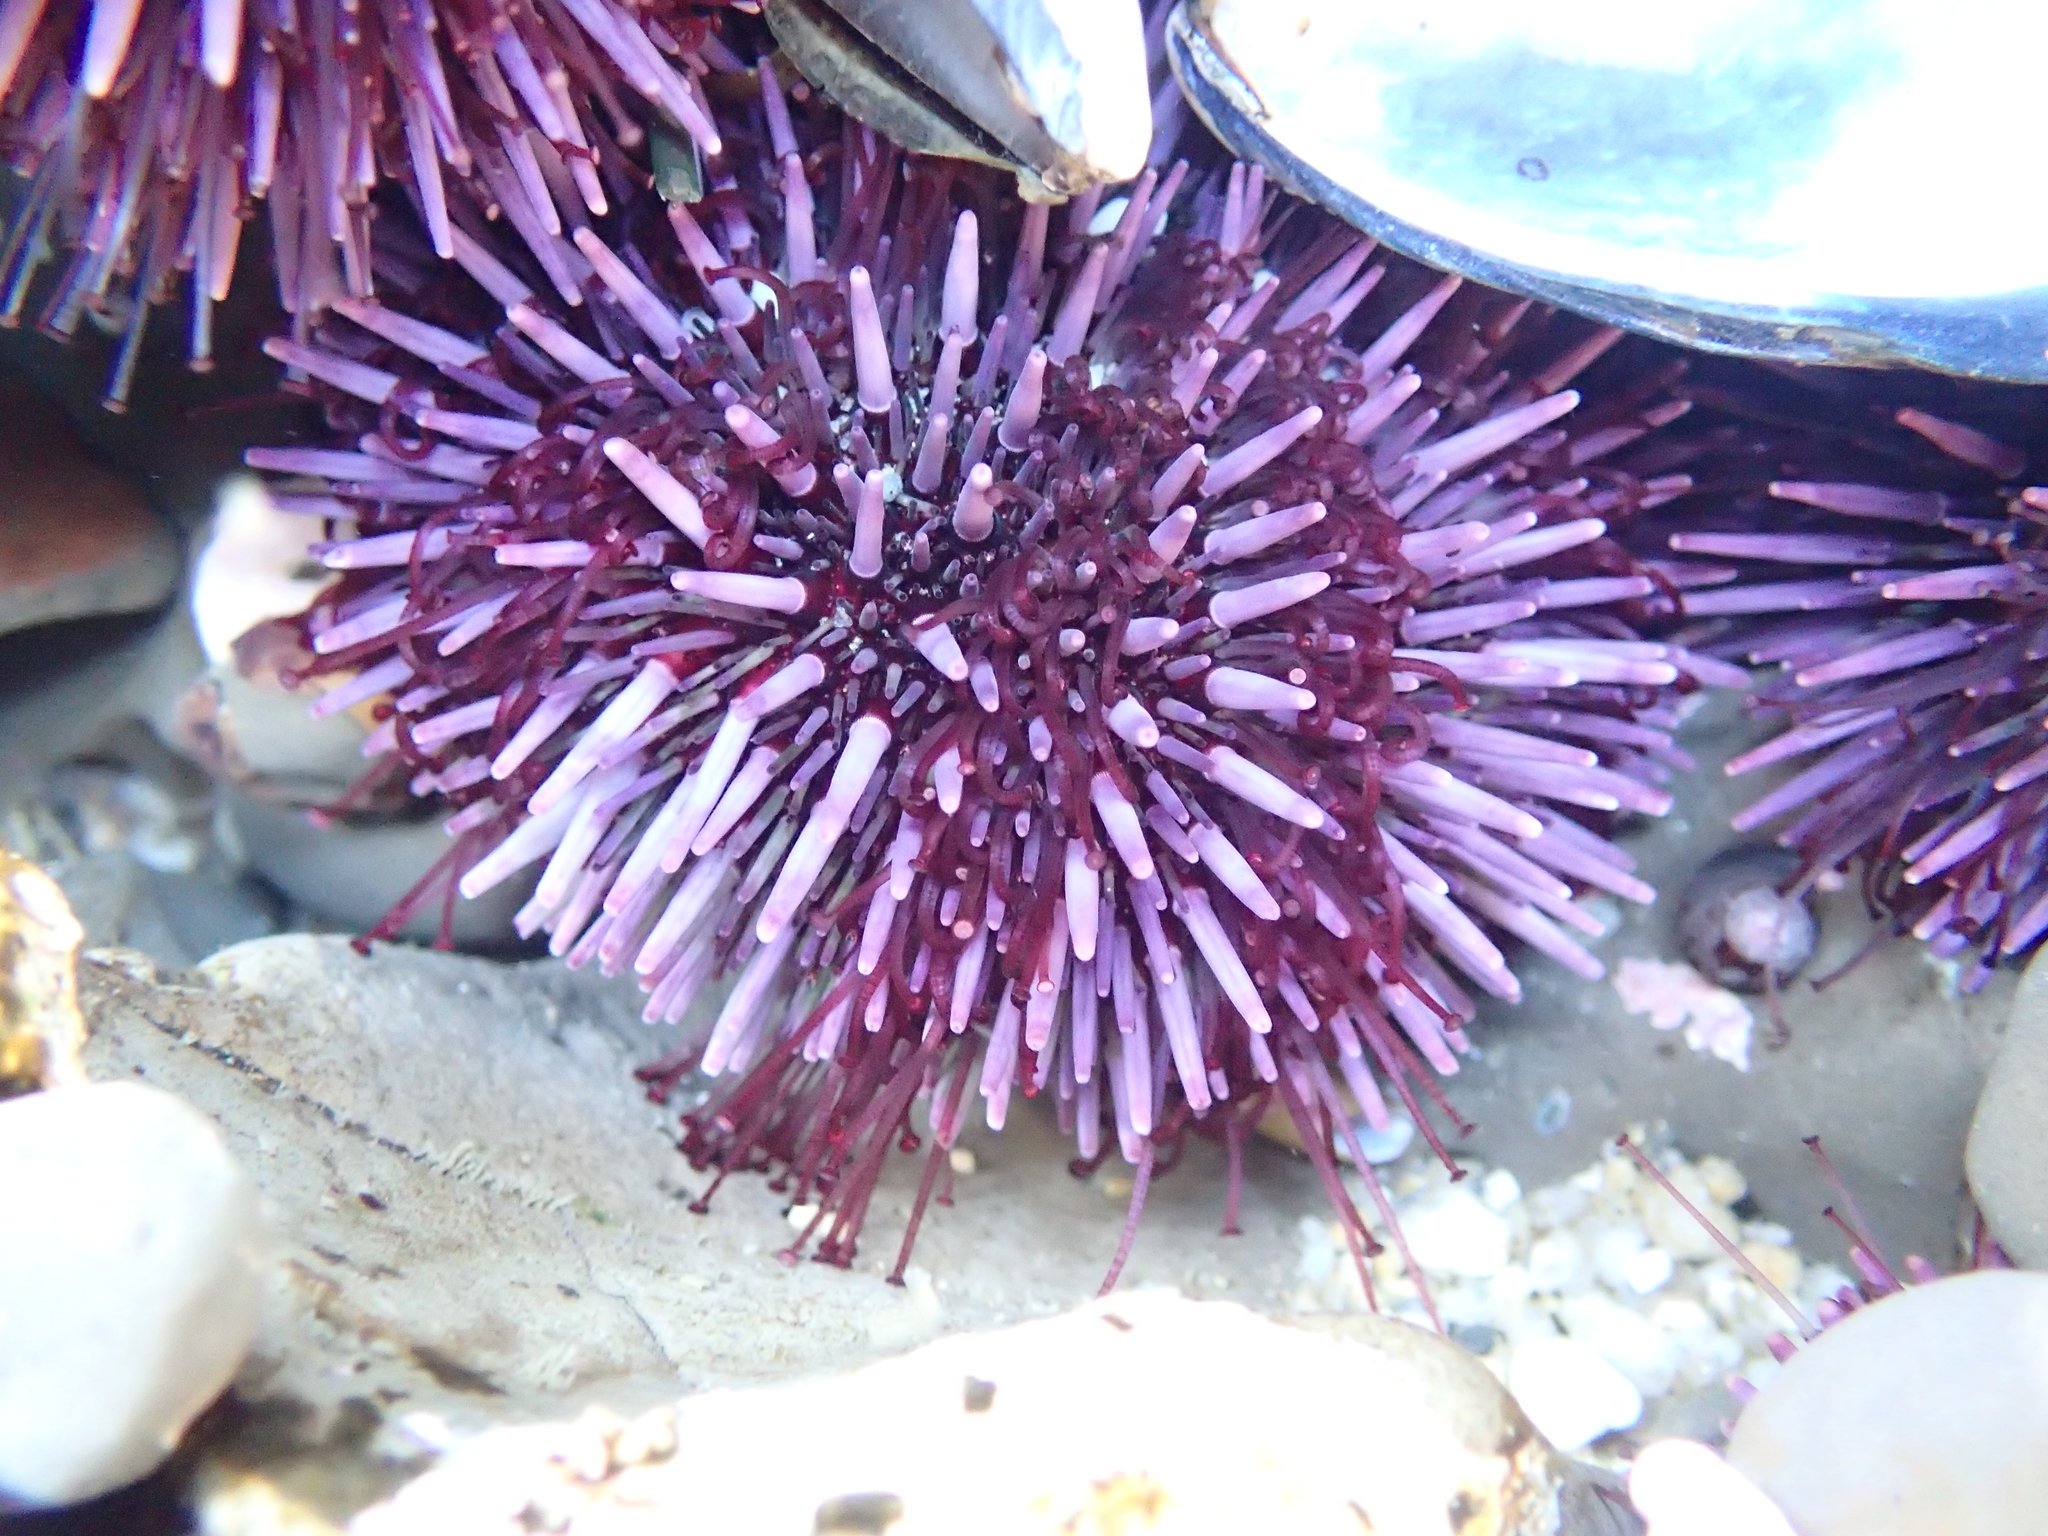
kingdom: Animalia
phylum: Echinodermata
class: Echinoidea
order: Camarodonta
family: Strongylocentrotidae
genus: Strongylocentrotus
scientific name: Strongylocentrotus purpuratus
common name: Purple sea urchin
